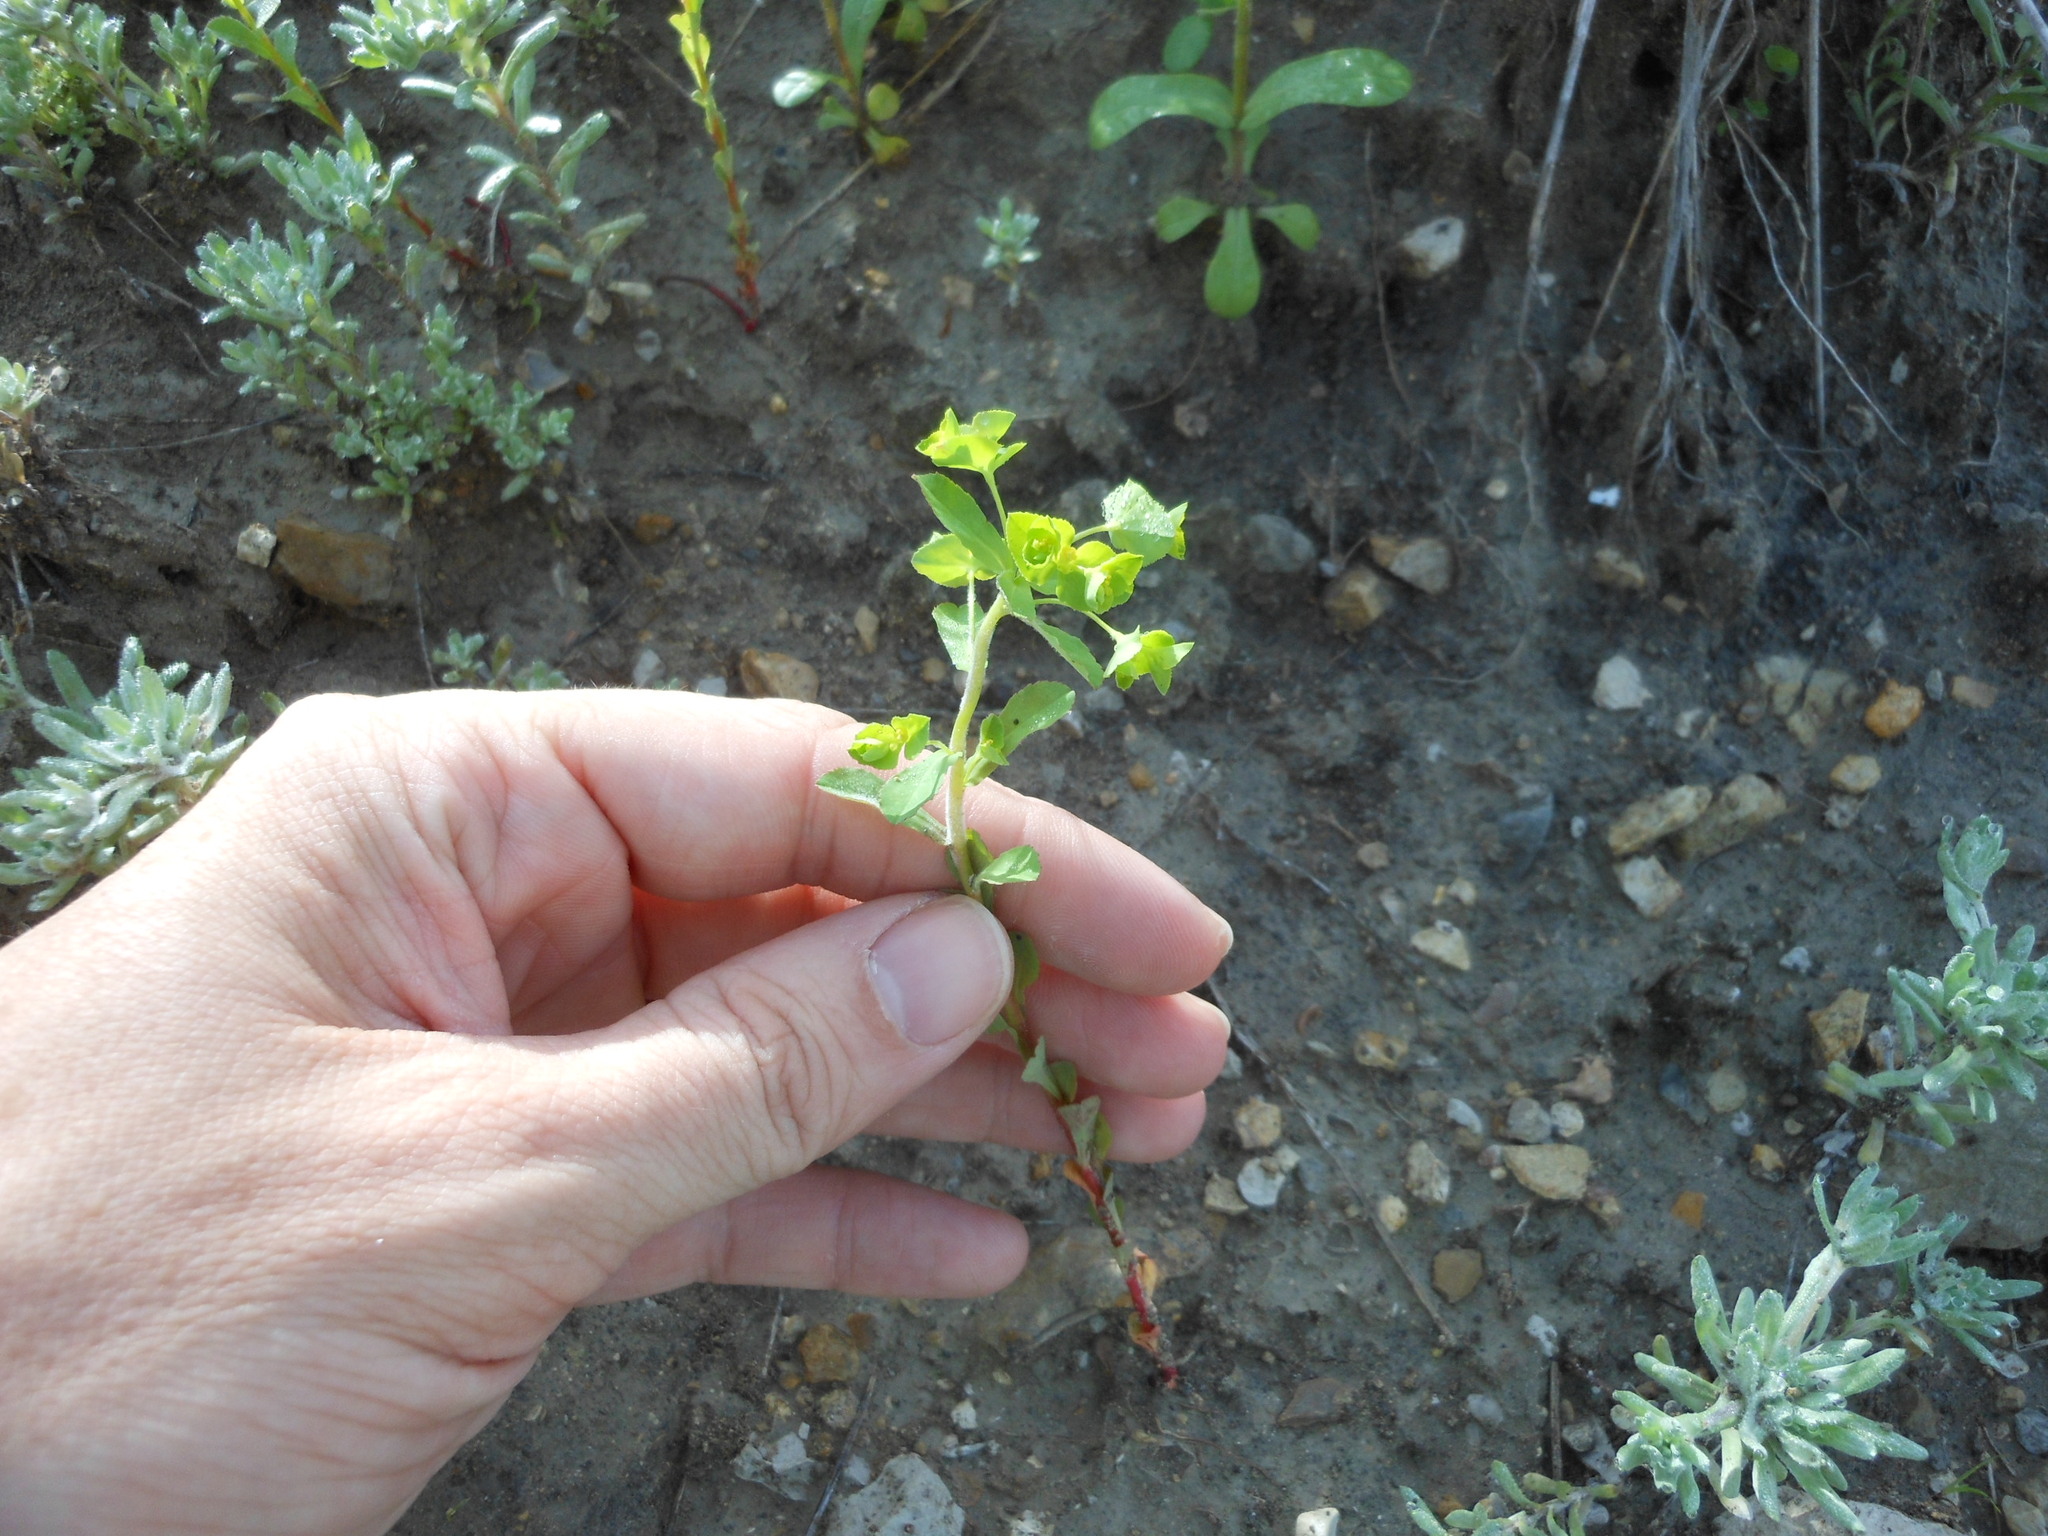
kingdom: Plantae
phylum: Tracheophyta
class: Magnoliopsida
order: Malpighiales
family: Euphorbiaceae
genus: Euphorbia
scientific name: Euphorbia spathulata
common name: Blunt spurge
